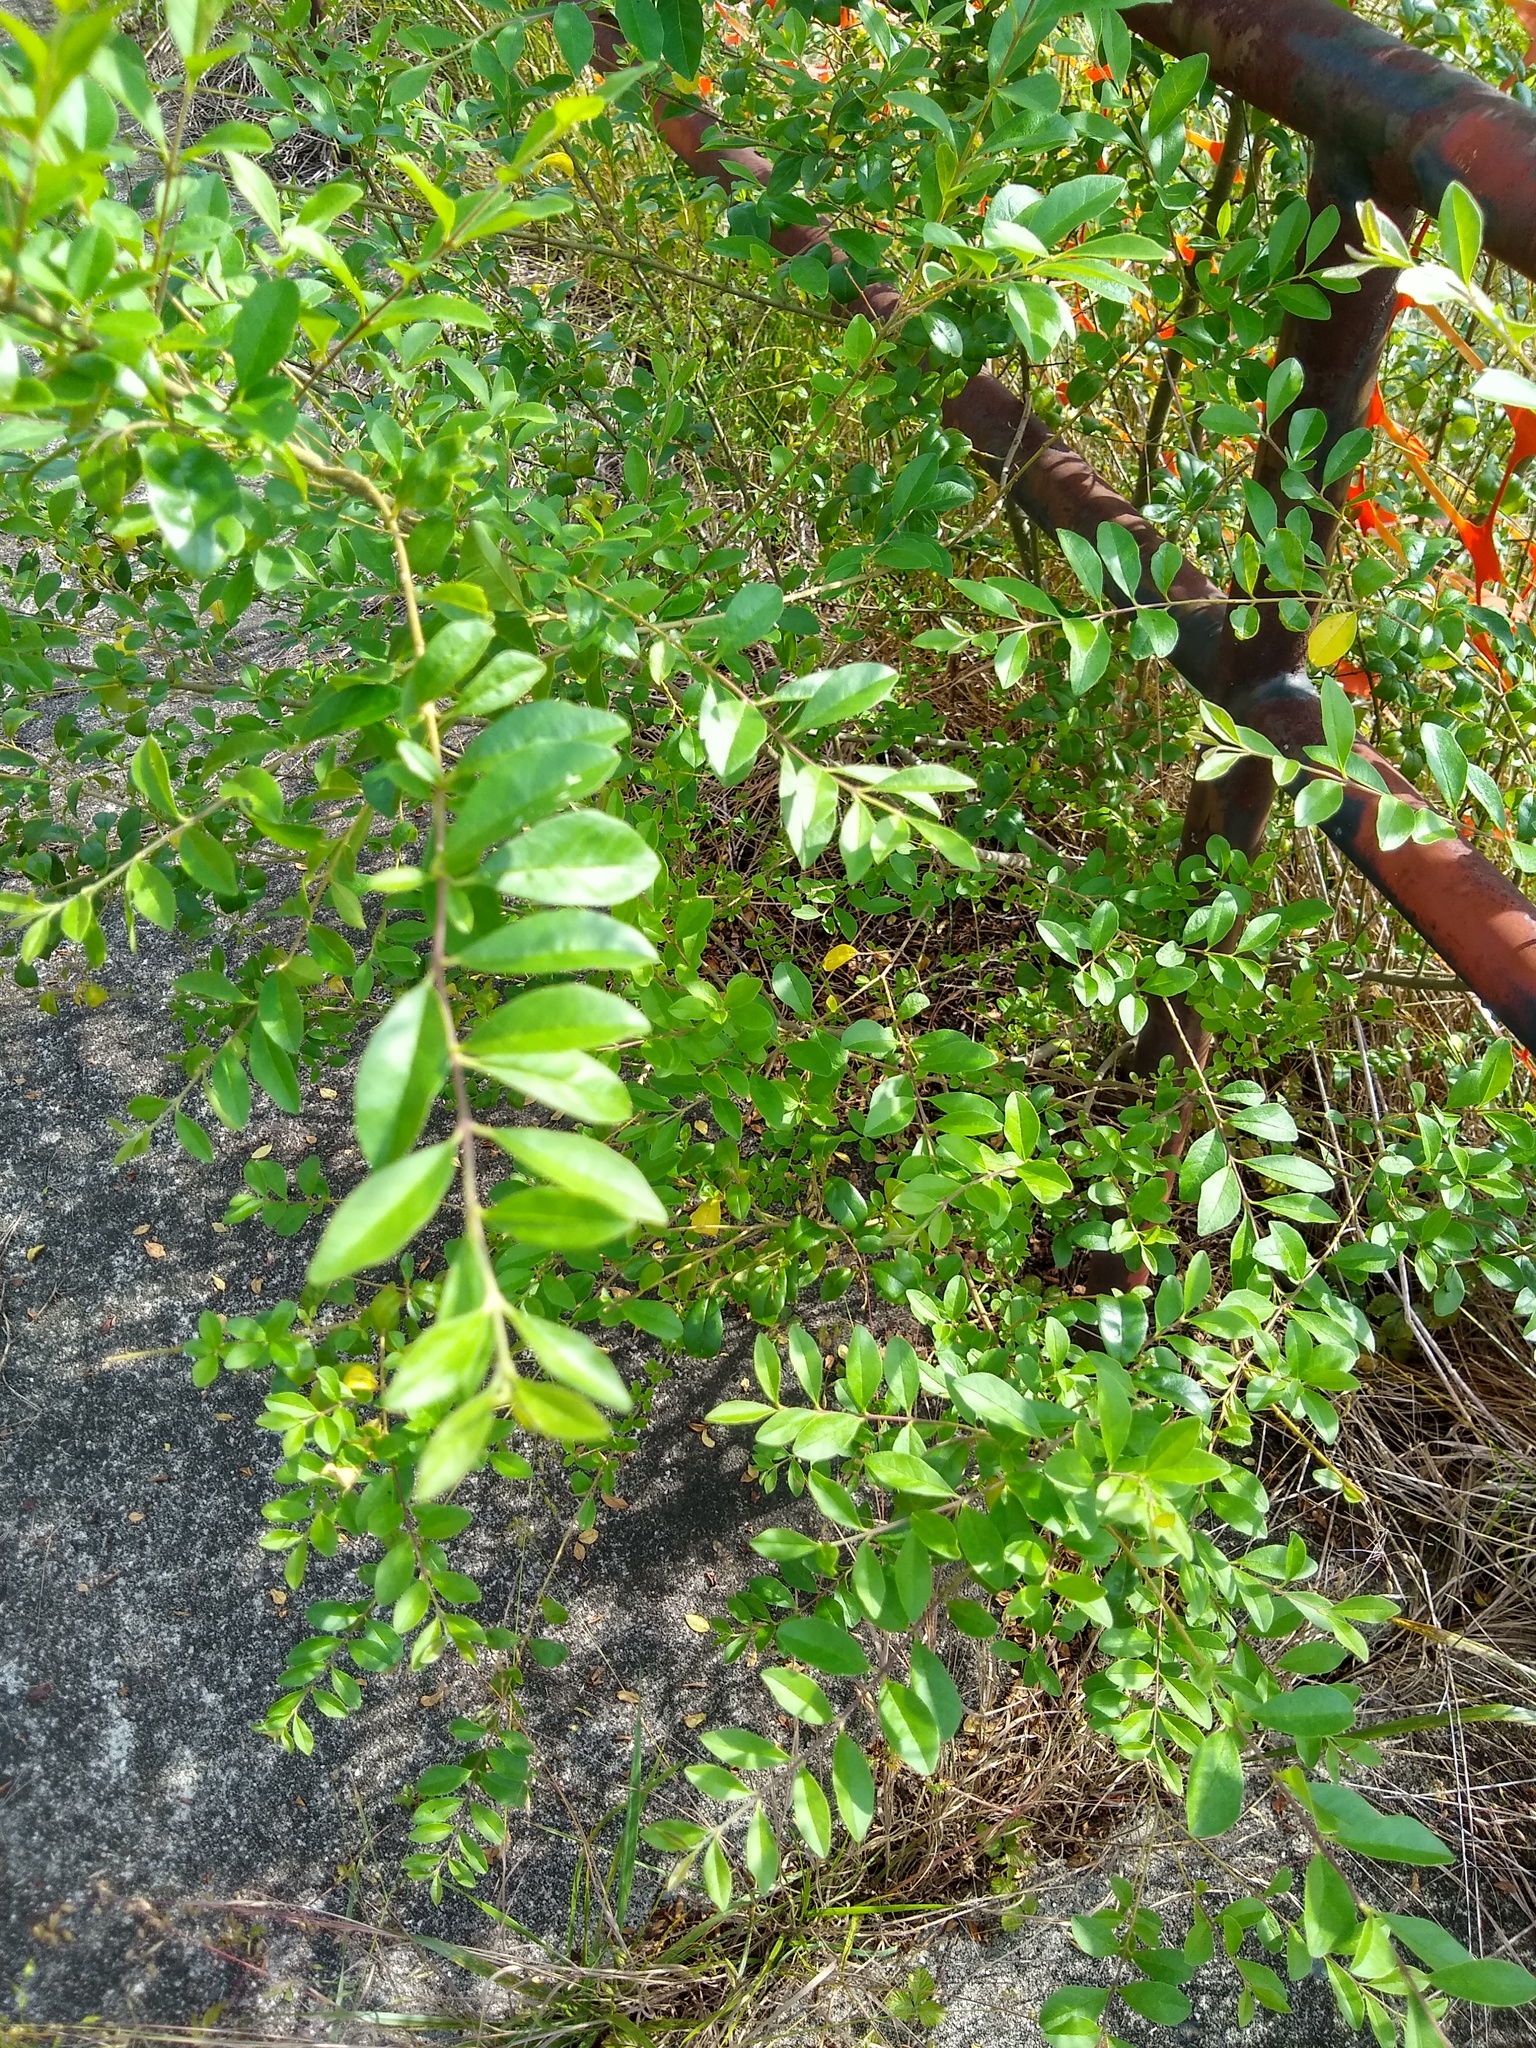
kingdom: Plantae
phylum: Tracheophyta
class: Magnoliopsida
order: Lamiales
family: Oleaceae
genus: Ligustrum
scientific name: Ligustrum sinense
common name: Chinese privet
